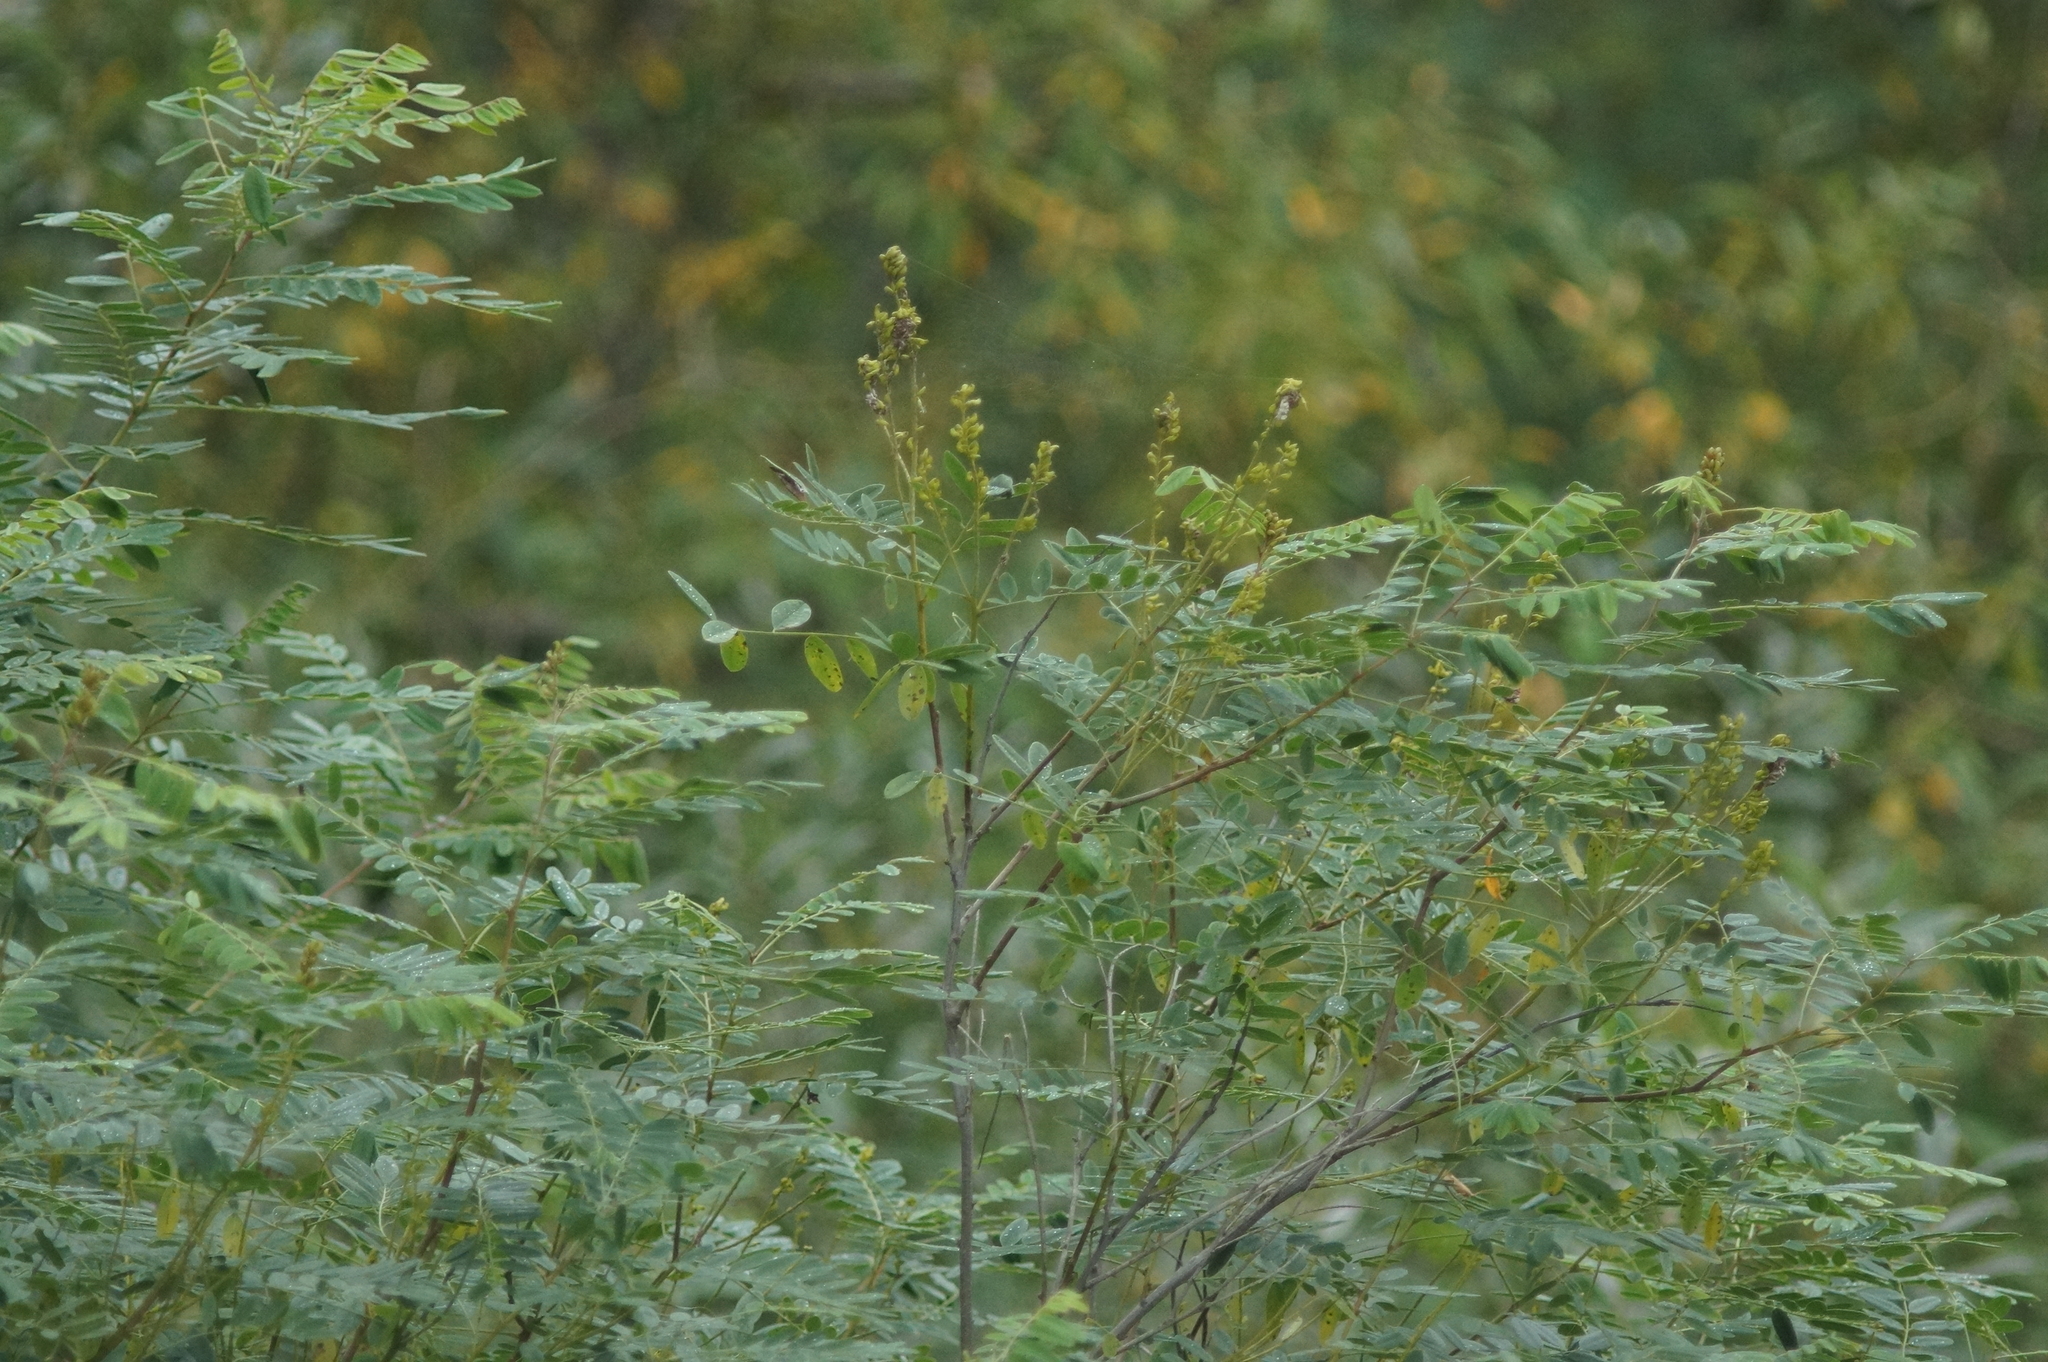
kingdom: Plantae
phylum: Tracheophyta
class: Magnoliopsida
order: Fabales
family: Fabaceae
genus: Amorpha
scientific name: Amorpha fruticosa
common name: False indigo
